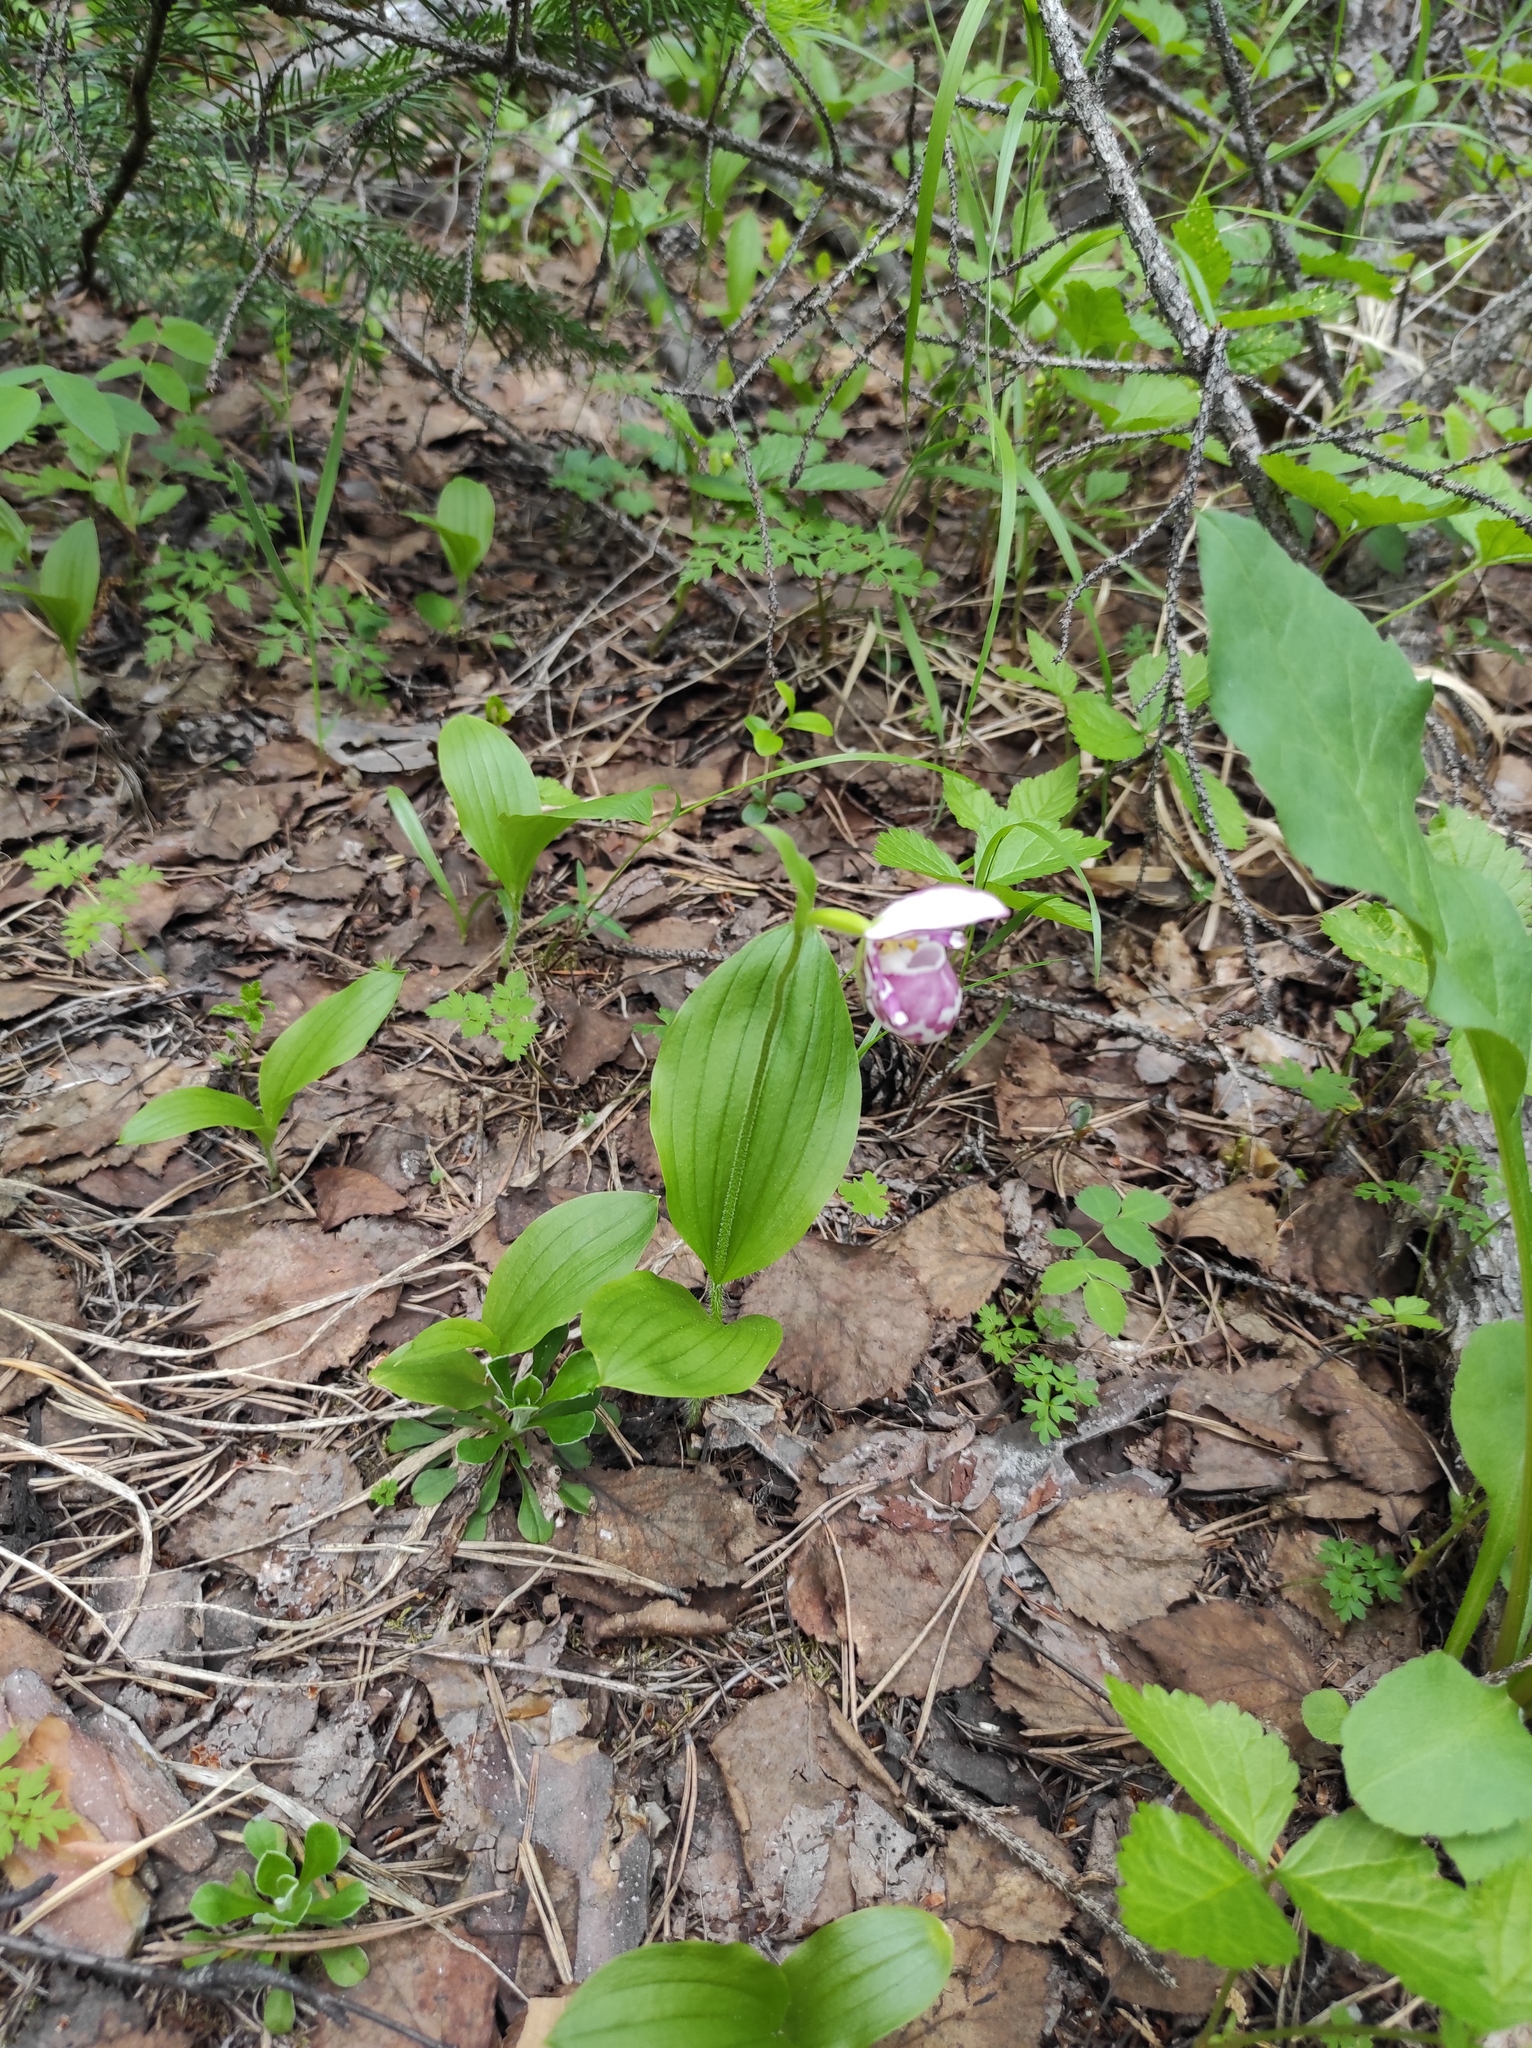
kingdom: Plantae
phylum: Tracheophyta
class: Liliopsida
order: Asparagales
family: Orchidaceae
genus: Cypripedium
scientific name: Cypripedium guttatum
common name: Pink lady slipper
